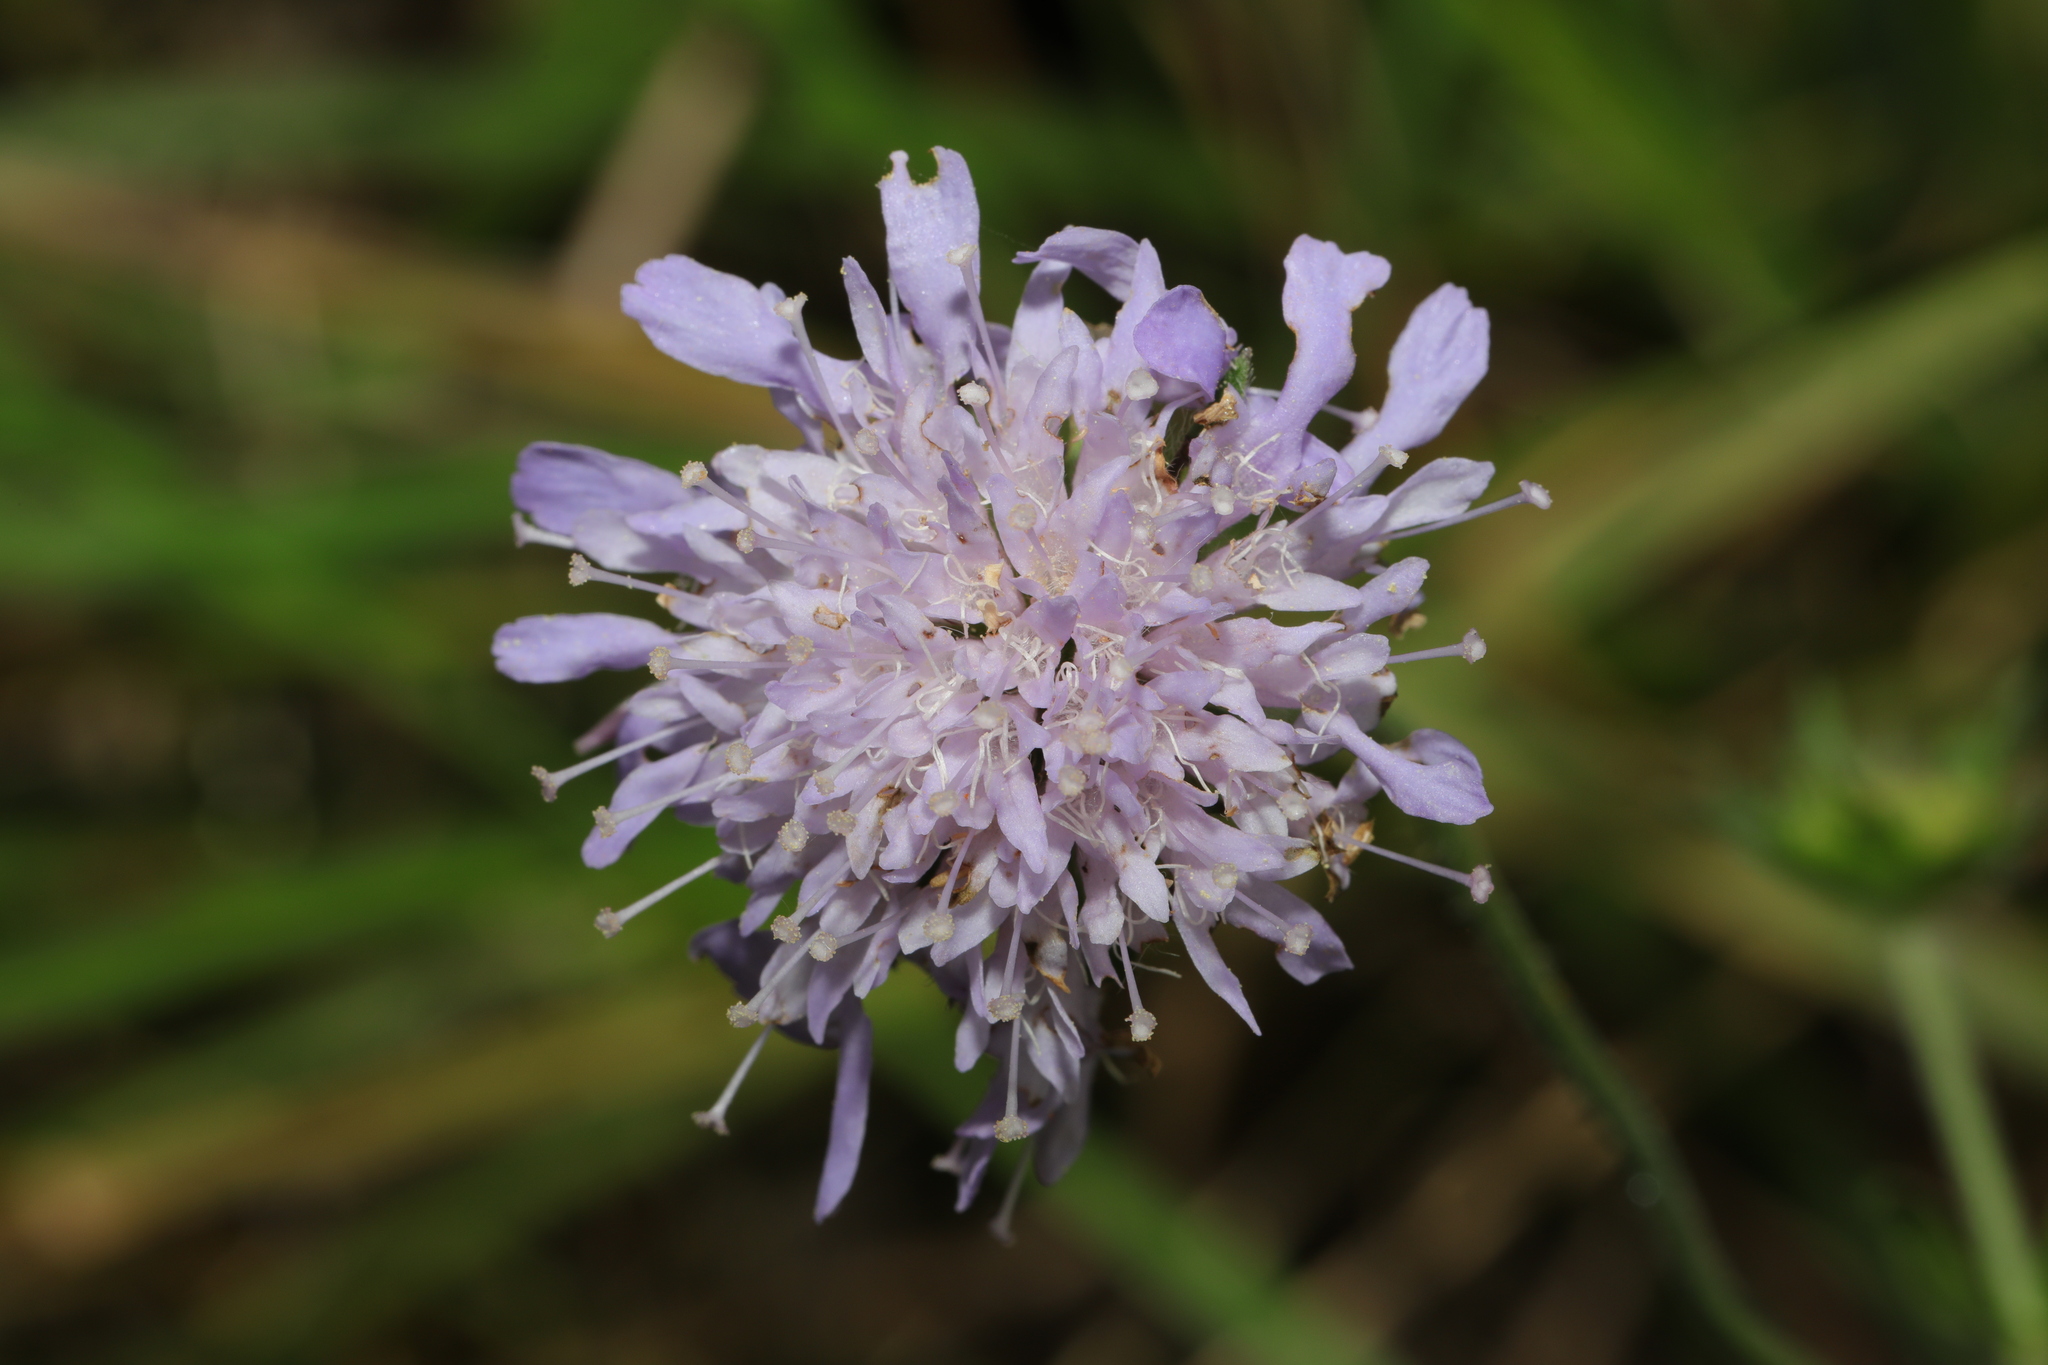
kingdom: Plantae
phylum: Tracheophyta
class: Magnoliopsida
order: Dipsacales
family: Caprifoliaceae
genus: Knautia
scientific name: Knautia arvensis
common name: Field scabiosa
